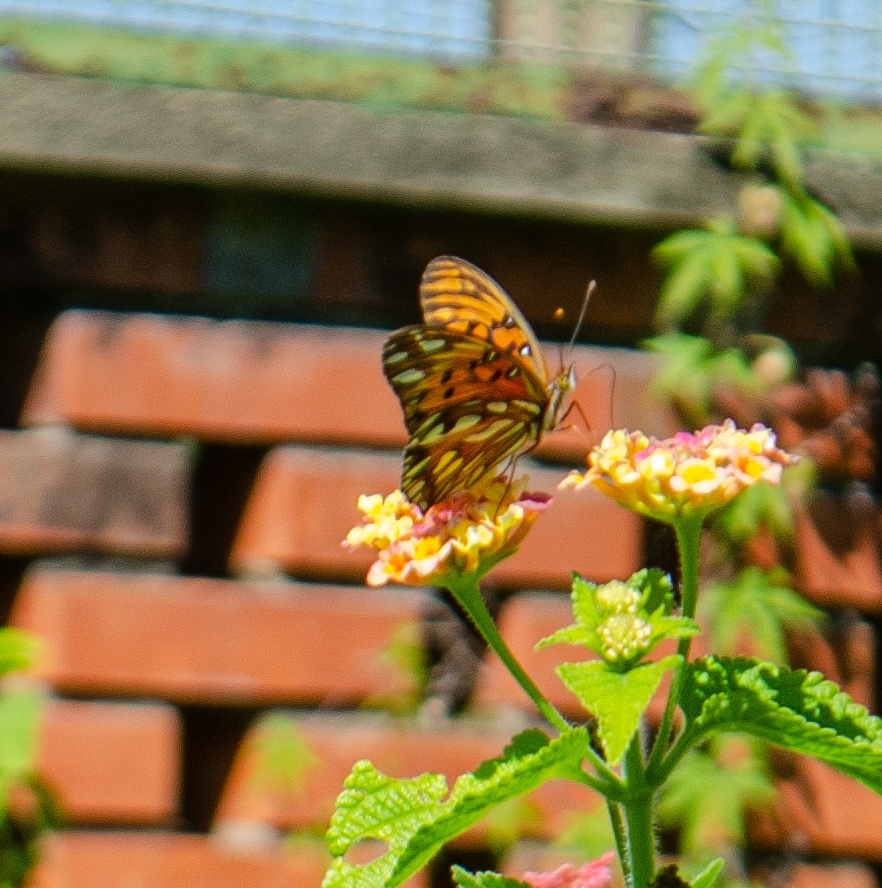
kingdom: Animalia
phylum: Arthropoda
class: Insecta
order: Lepidoptera
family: Nymphalidae
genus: Dione
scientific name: Dione vanillae
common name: Gulf fritillary
